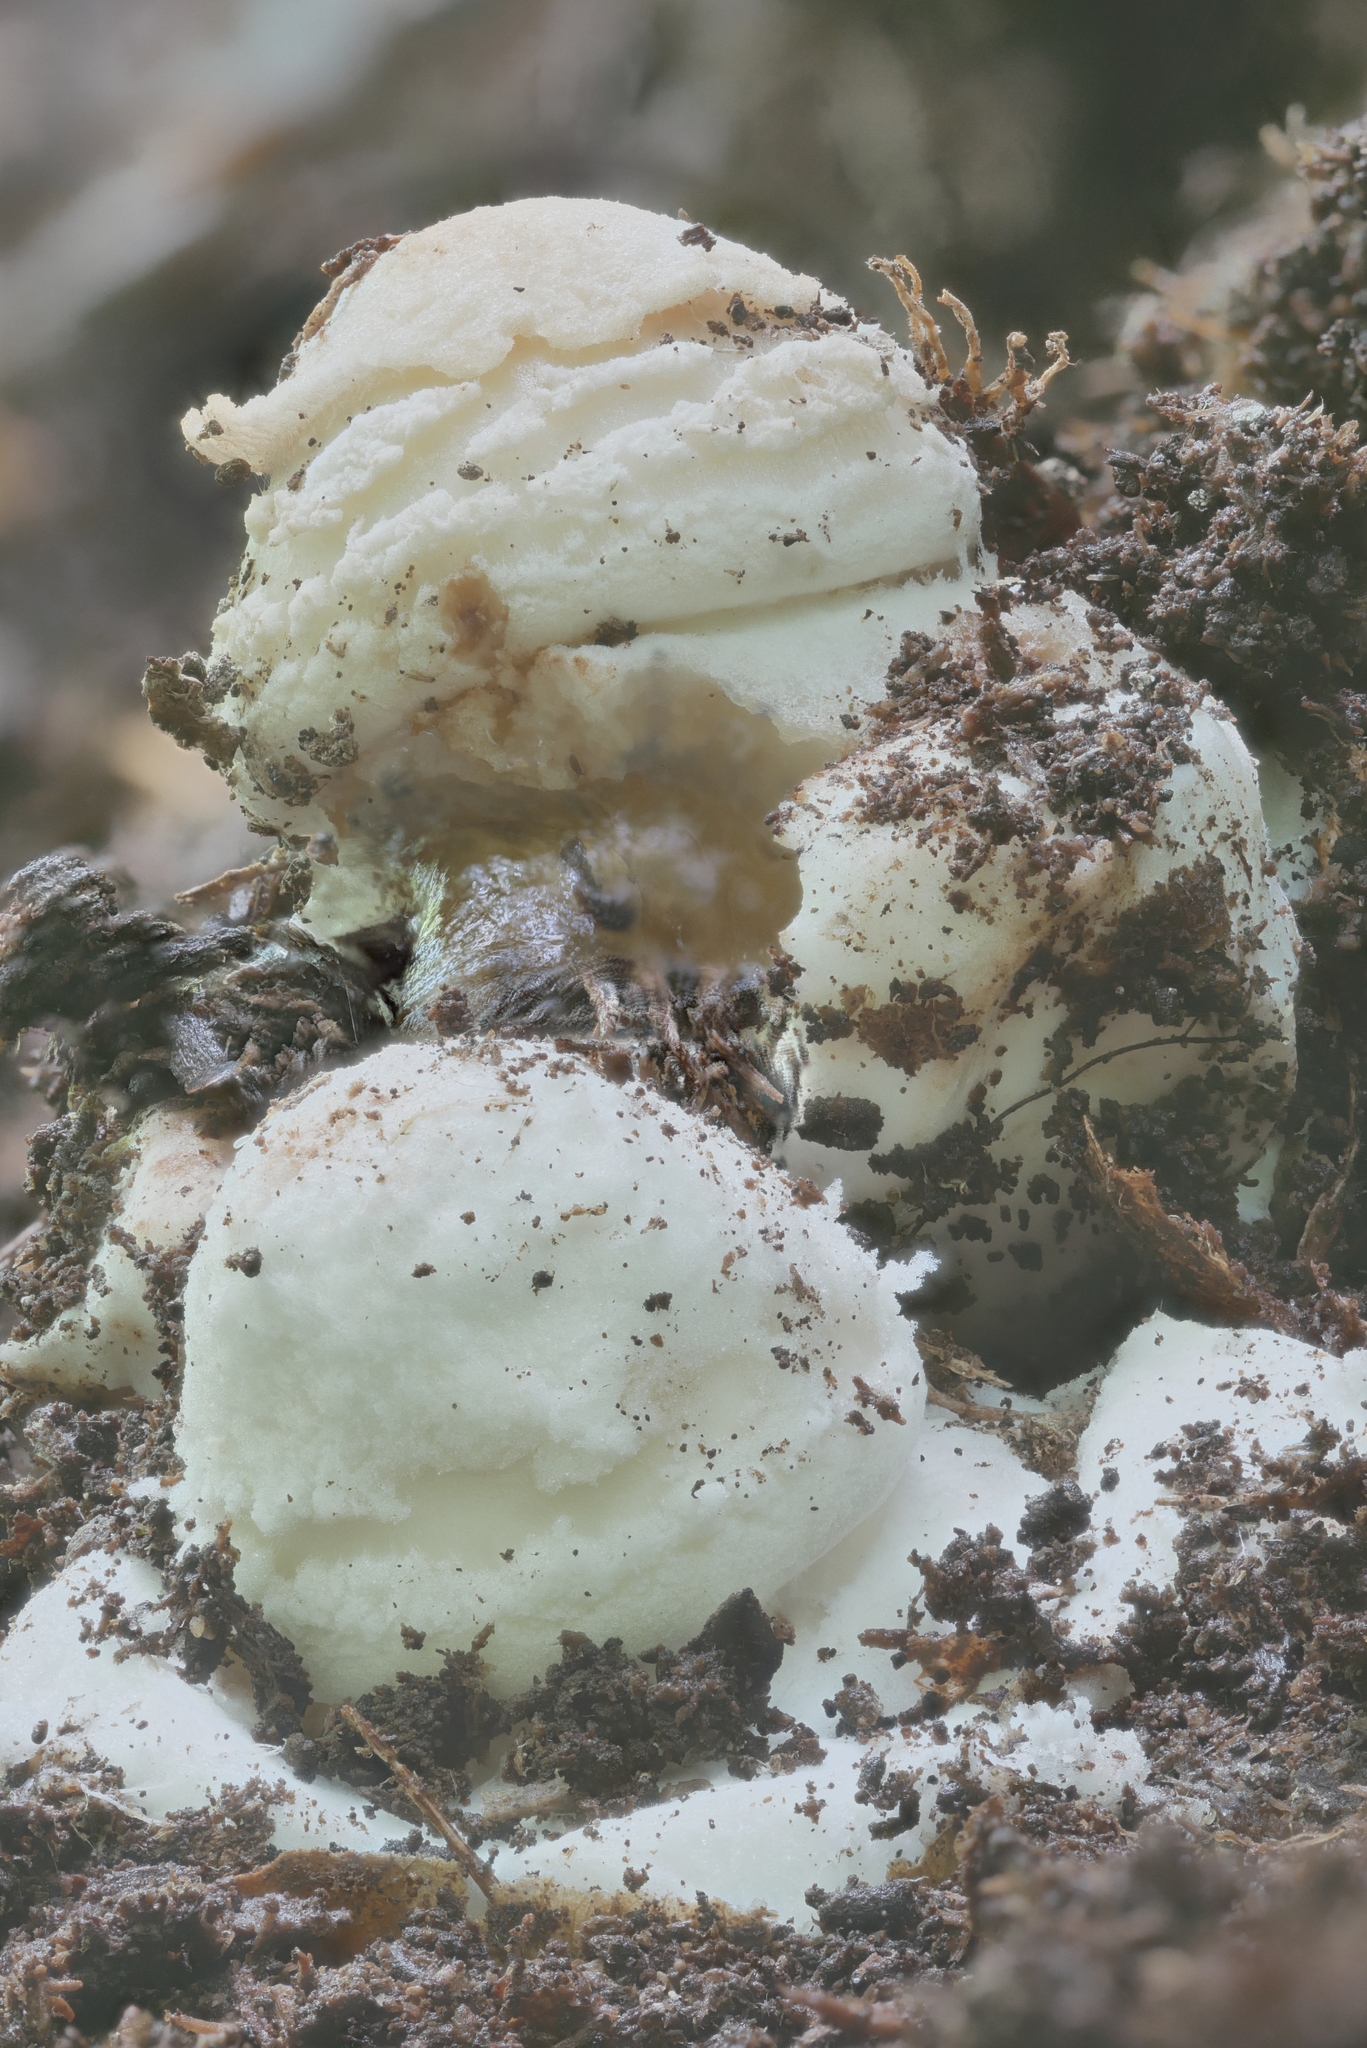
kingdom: Fungi
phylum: Basidiomycota
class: Agaricomycetes
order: Agaricales
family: Amanitaceae
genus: Amanita
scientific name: Amanita brunnescens
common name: Brown american star-footed amanita
